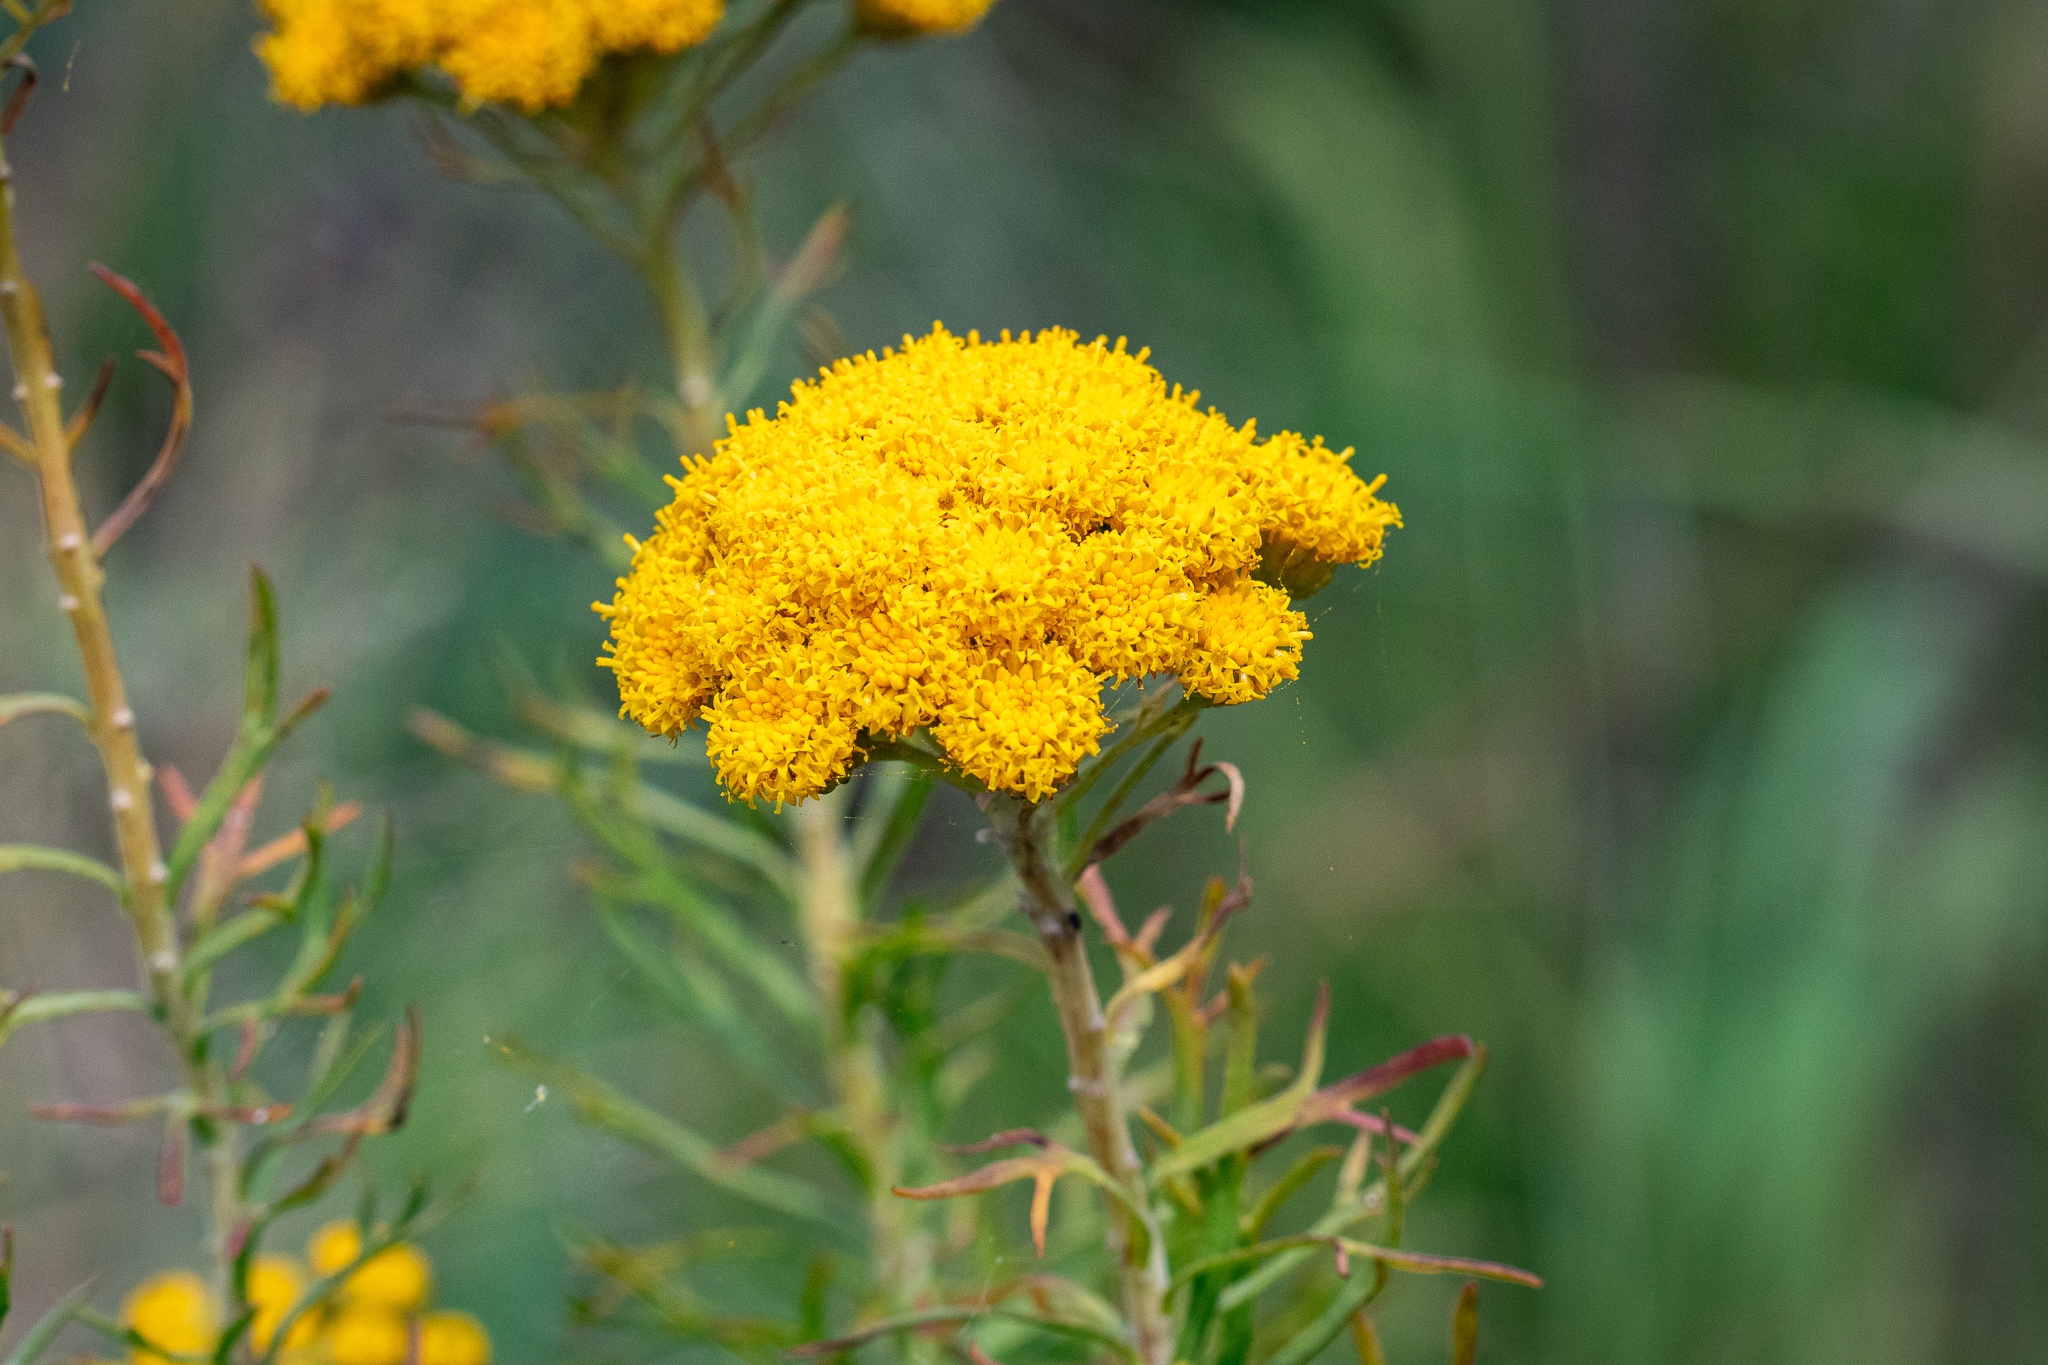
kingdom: Plantae
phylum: Tracheophyta
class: Magnoliopsida
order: Asterales
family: Asteraceae
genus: Athanasia
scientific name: Athanasia trifurcata
